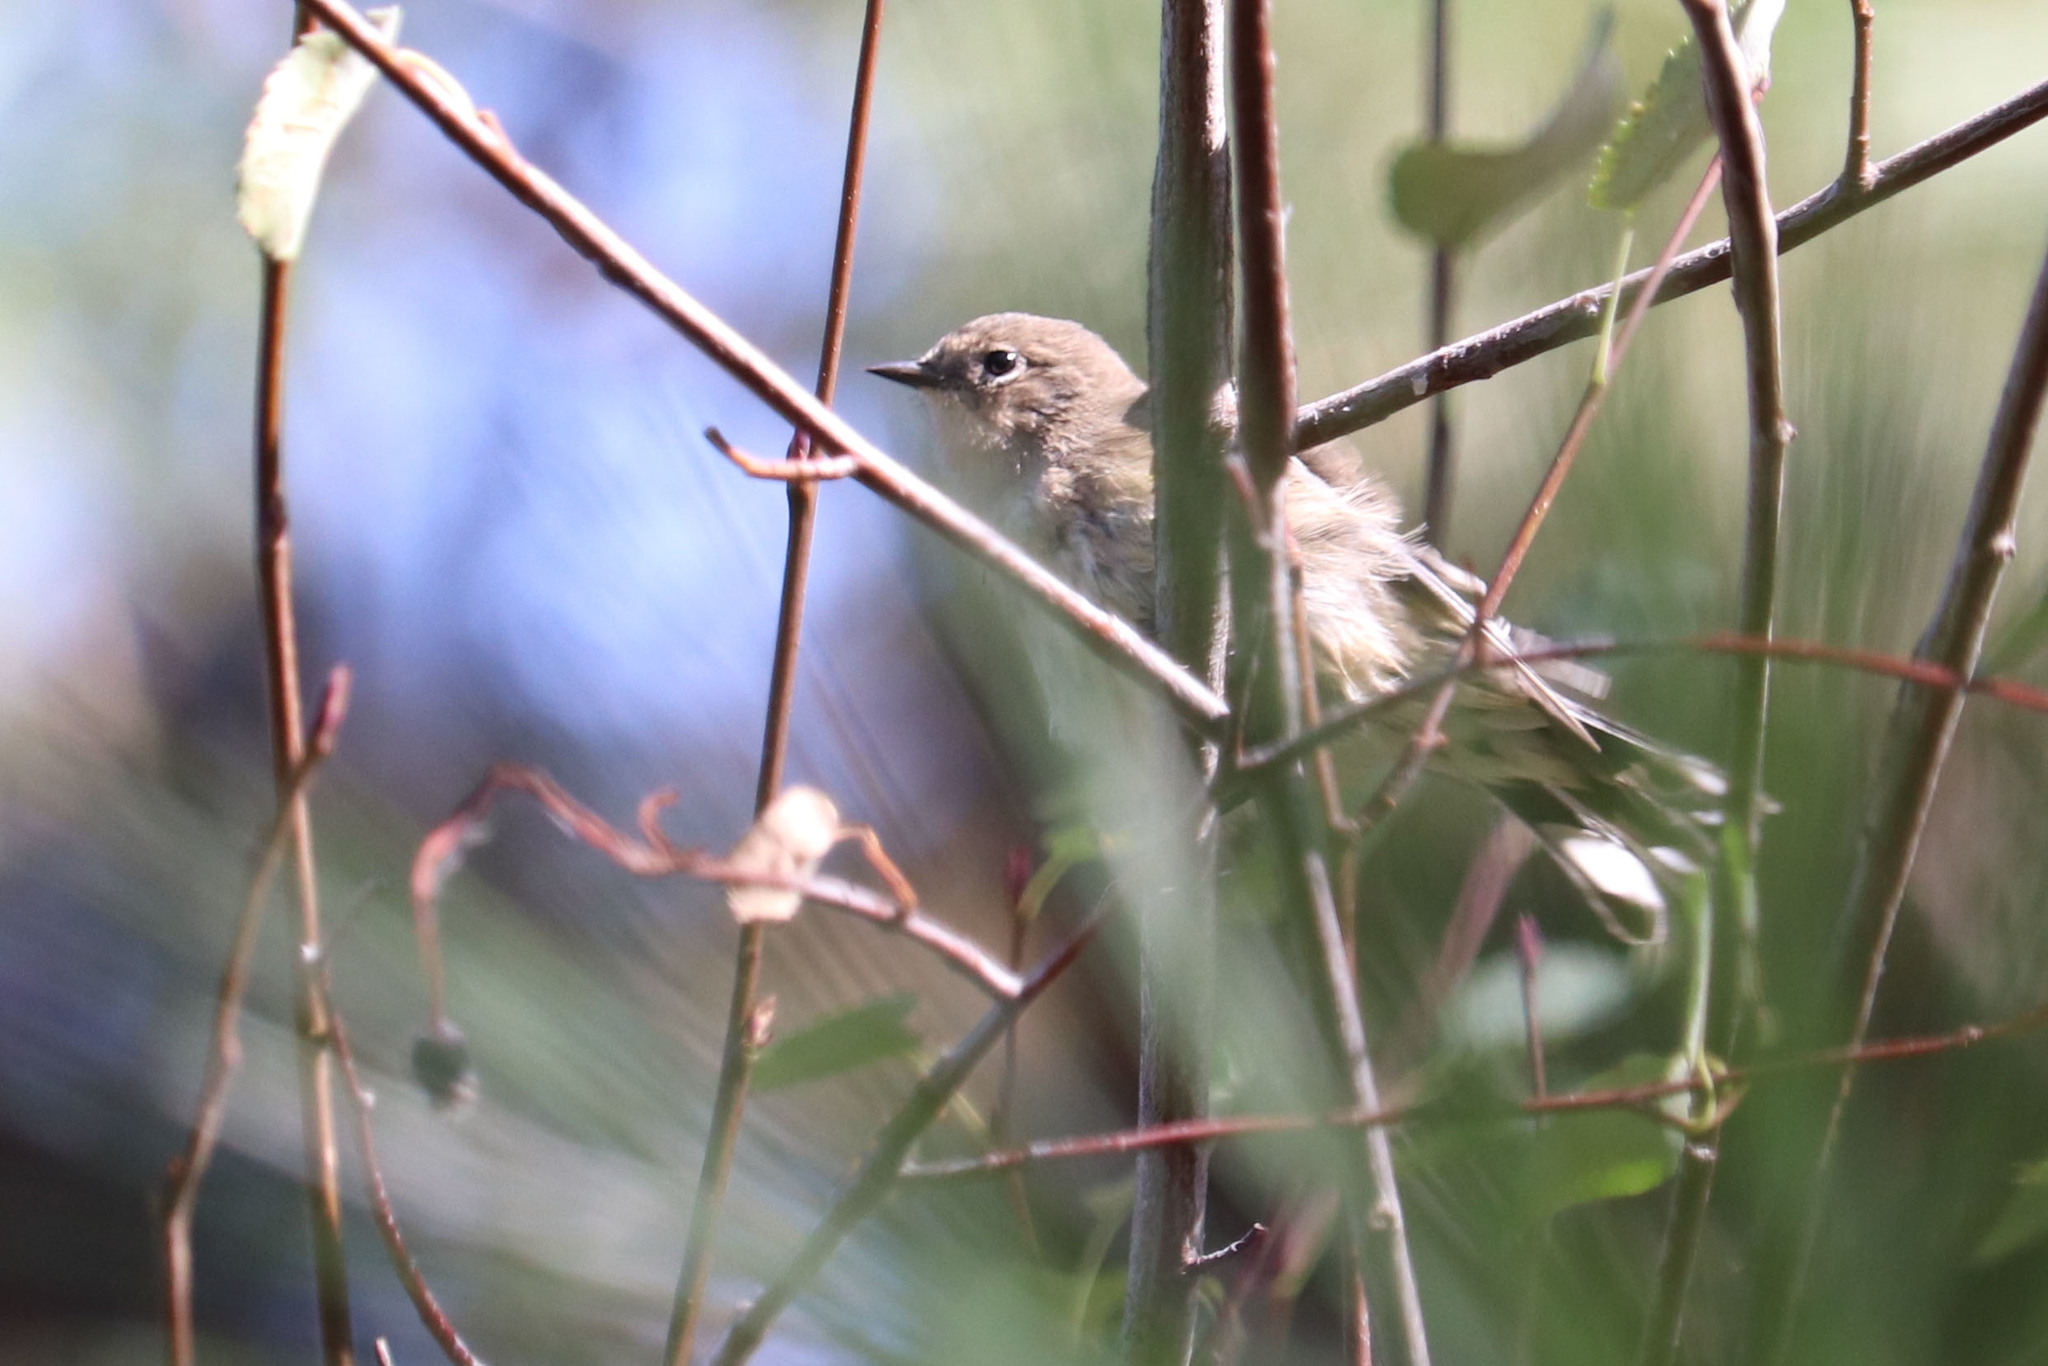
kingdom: Animalia
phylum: Chordata
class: Aves
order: Passeriformes
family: Parulidae
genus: Setophaga
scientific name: Setophaga coronata
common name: Myrtle warbler
